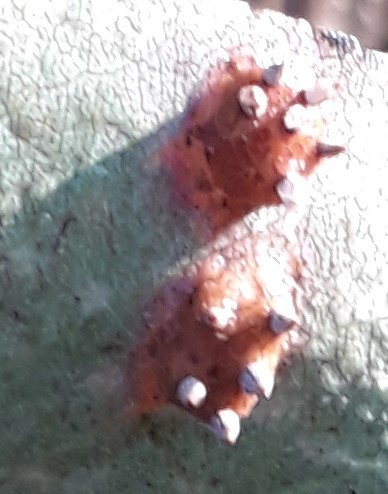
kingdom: Fungi
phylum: Basidiomycota
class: Pucciniomycetes
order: Pucciniales
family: Gymnosporangiaceae
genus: Gymnosporangium
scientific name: Gymnosporangium sabinae
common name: Pear trellis rust fungus
